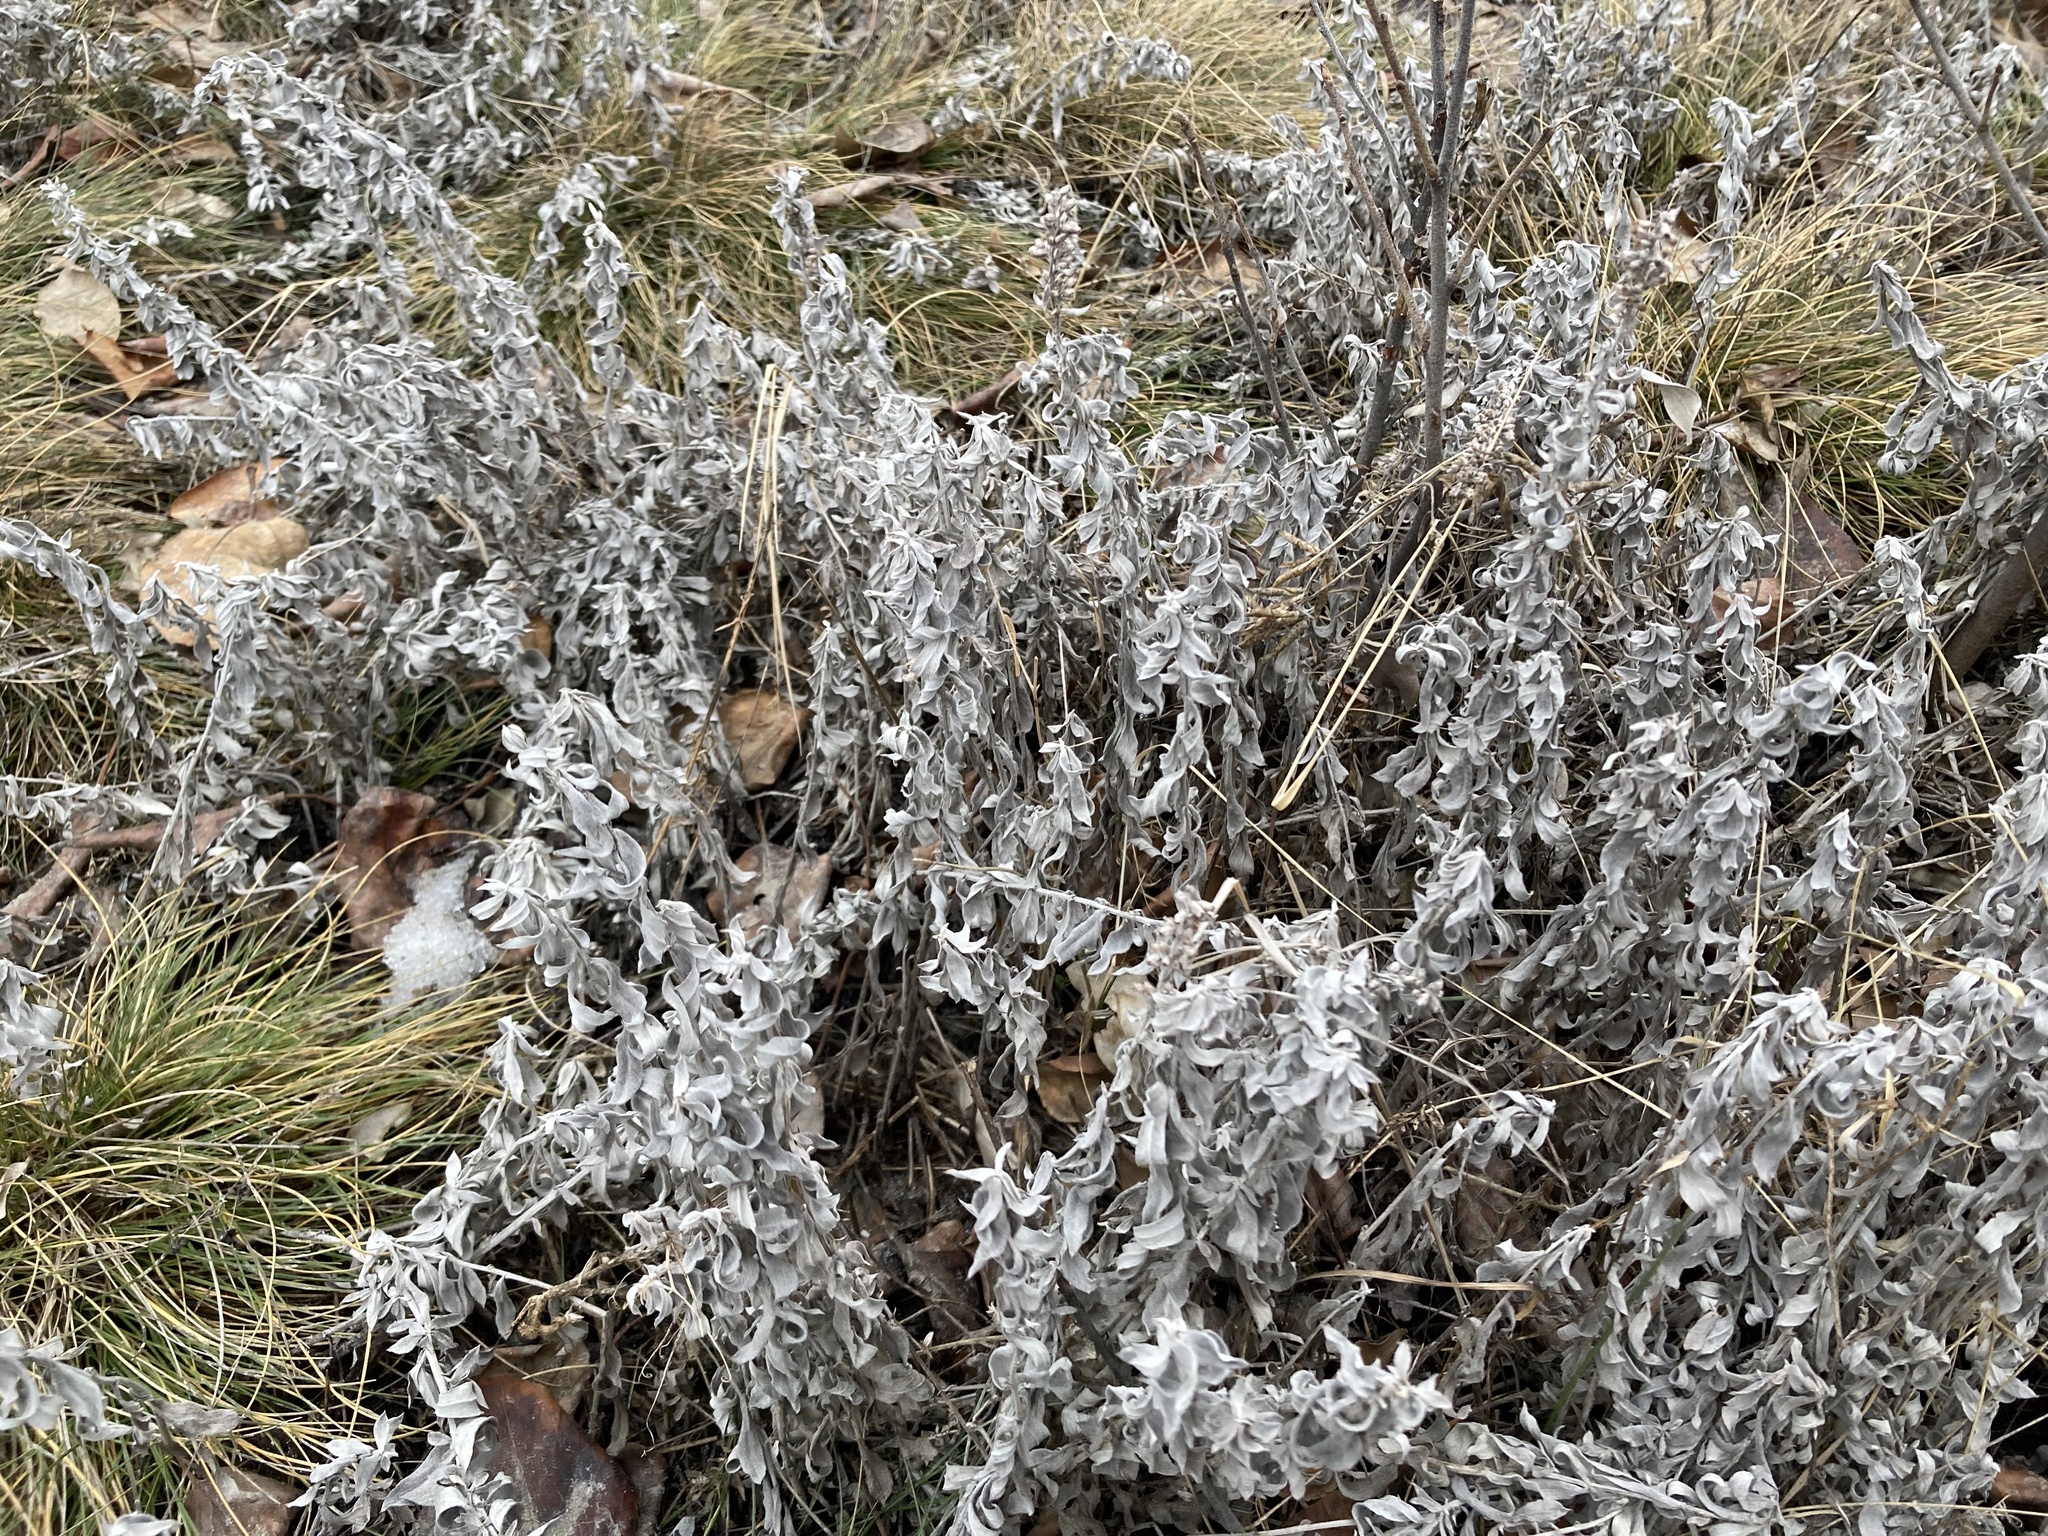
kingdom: Plantae
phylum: Tracheophyta
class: Magnoliopsida
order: Asterales
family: Asteraceae
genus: Artemisia
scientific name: Artemisia ludoviciana
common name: Western mugwort
